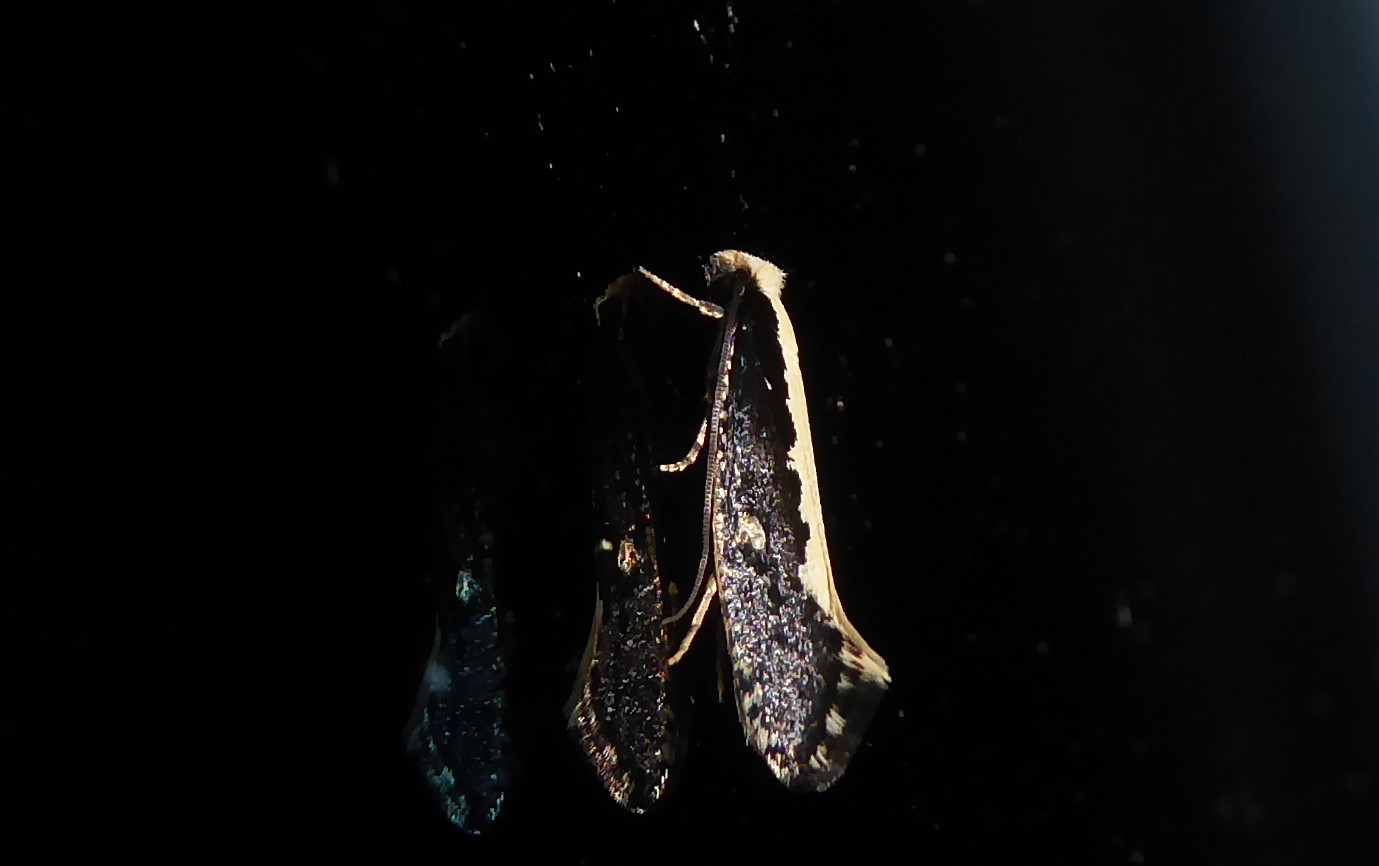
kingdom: Animalia
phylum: Arthropoda
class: Insecta
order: Lepidoptera
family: Tineidae
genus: Monopis
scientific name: Monopis ethelella
